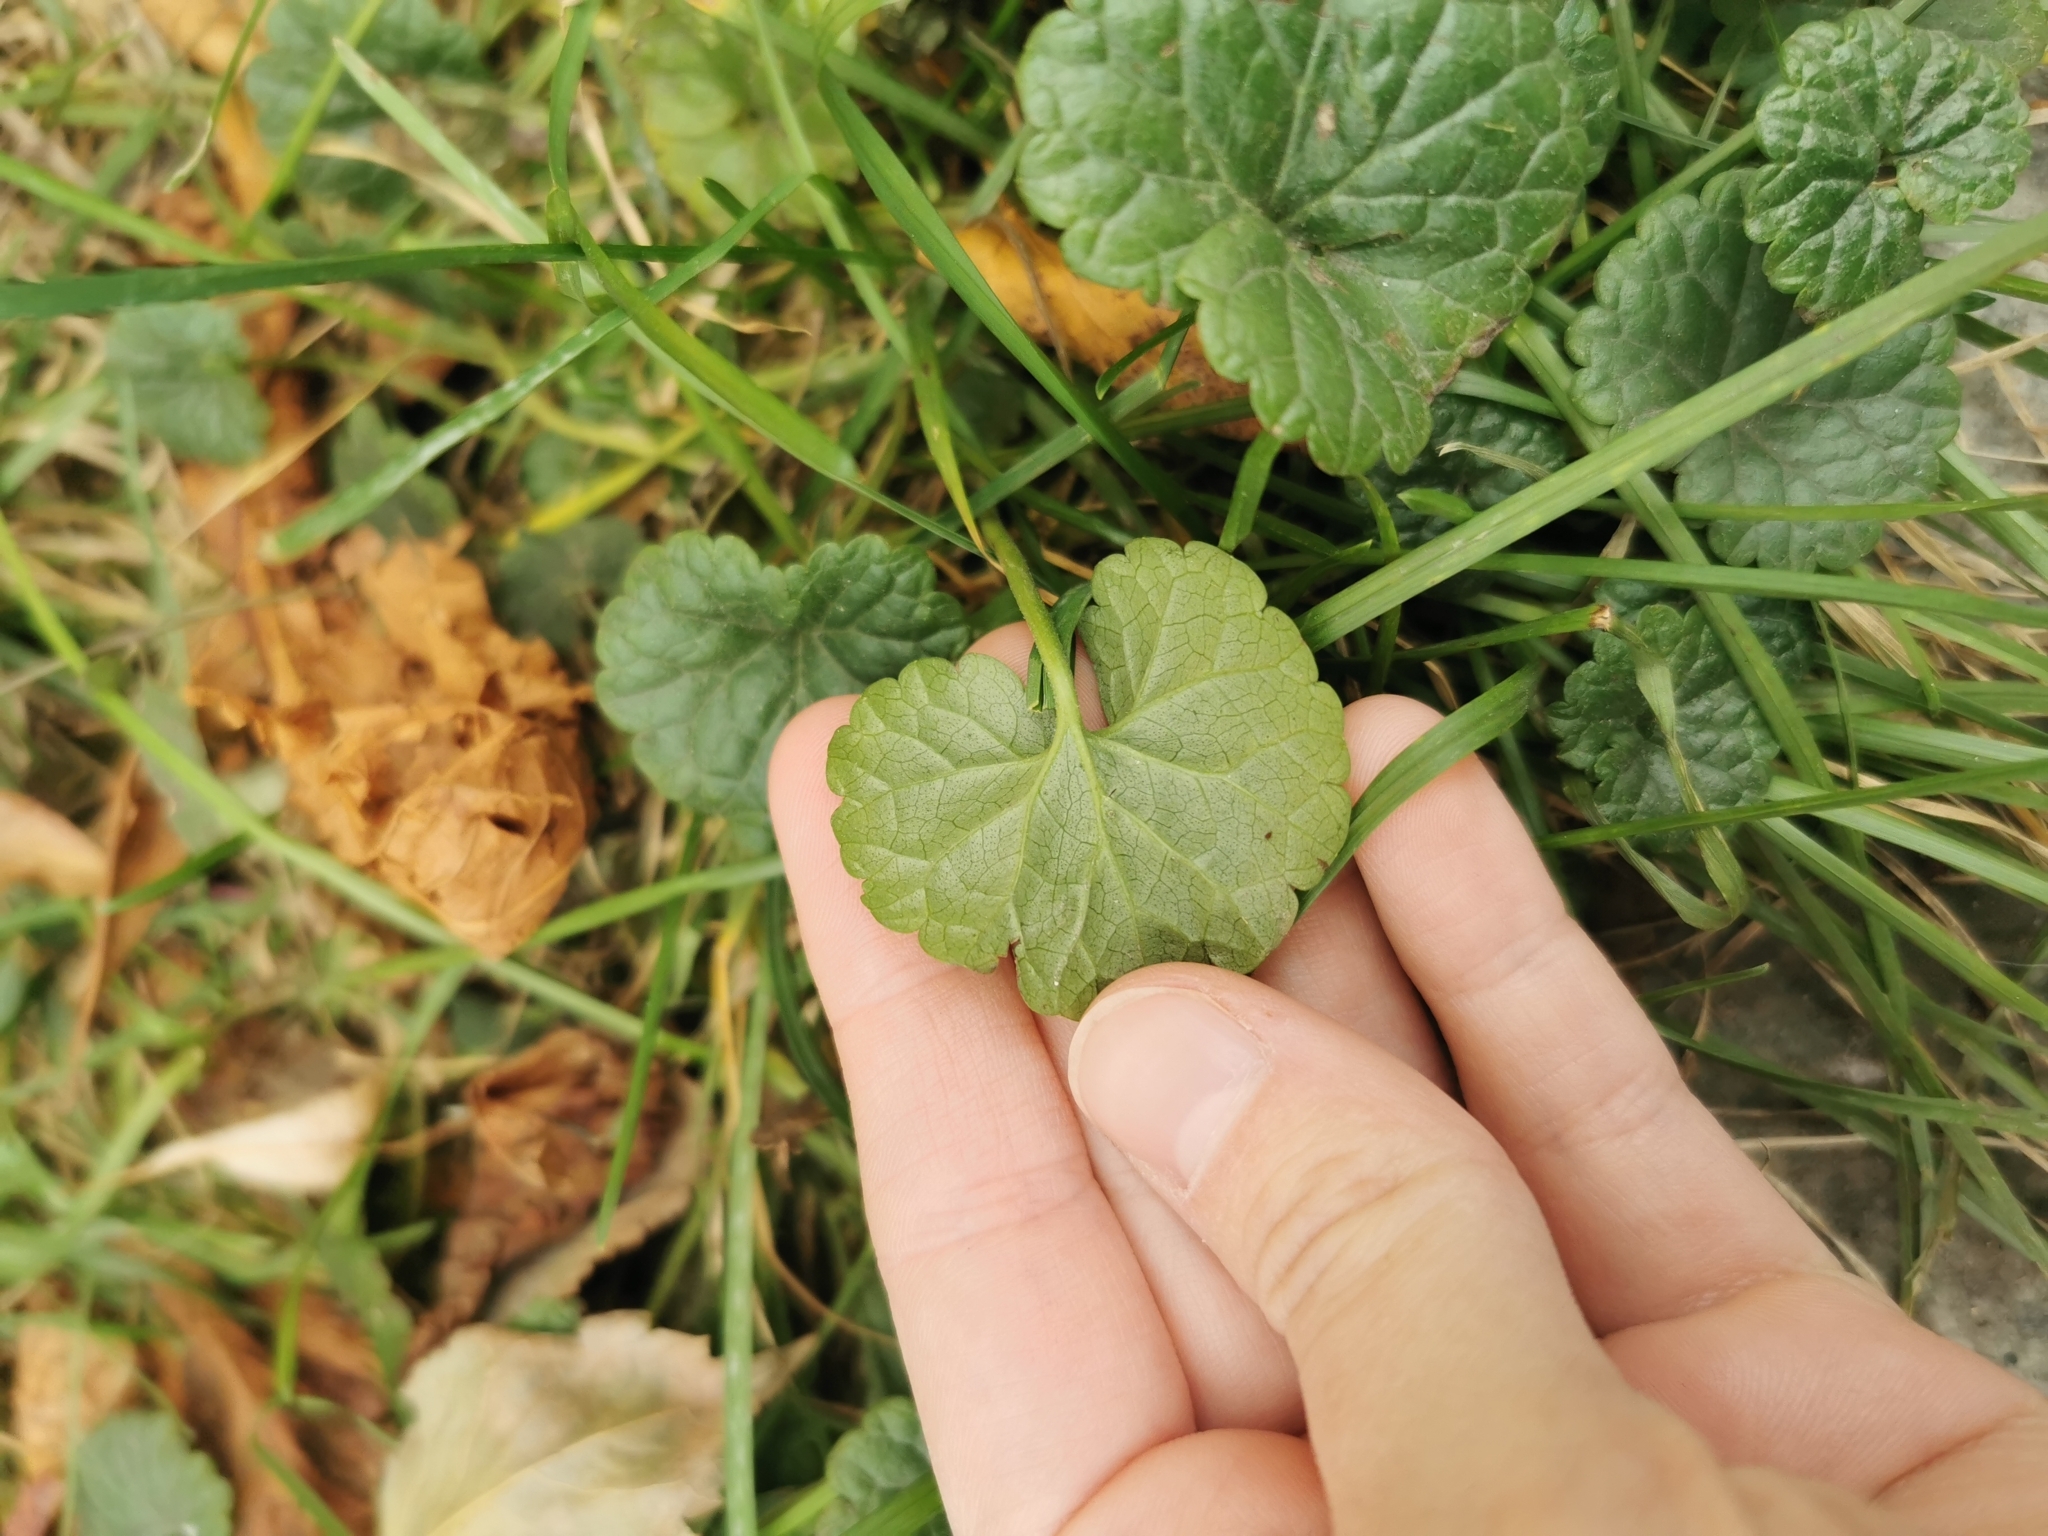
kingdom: Plantae
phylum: Tracheophyta
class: Magnoliopsida
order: Lamiales
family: Lamiaceae
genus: Glechoma
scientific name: Glechoma hederacea
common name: Ground ivy
